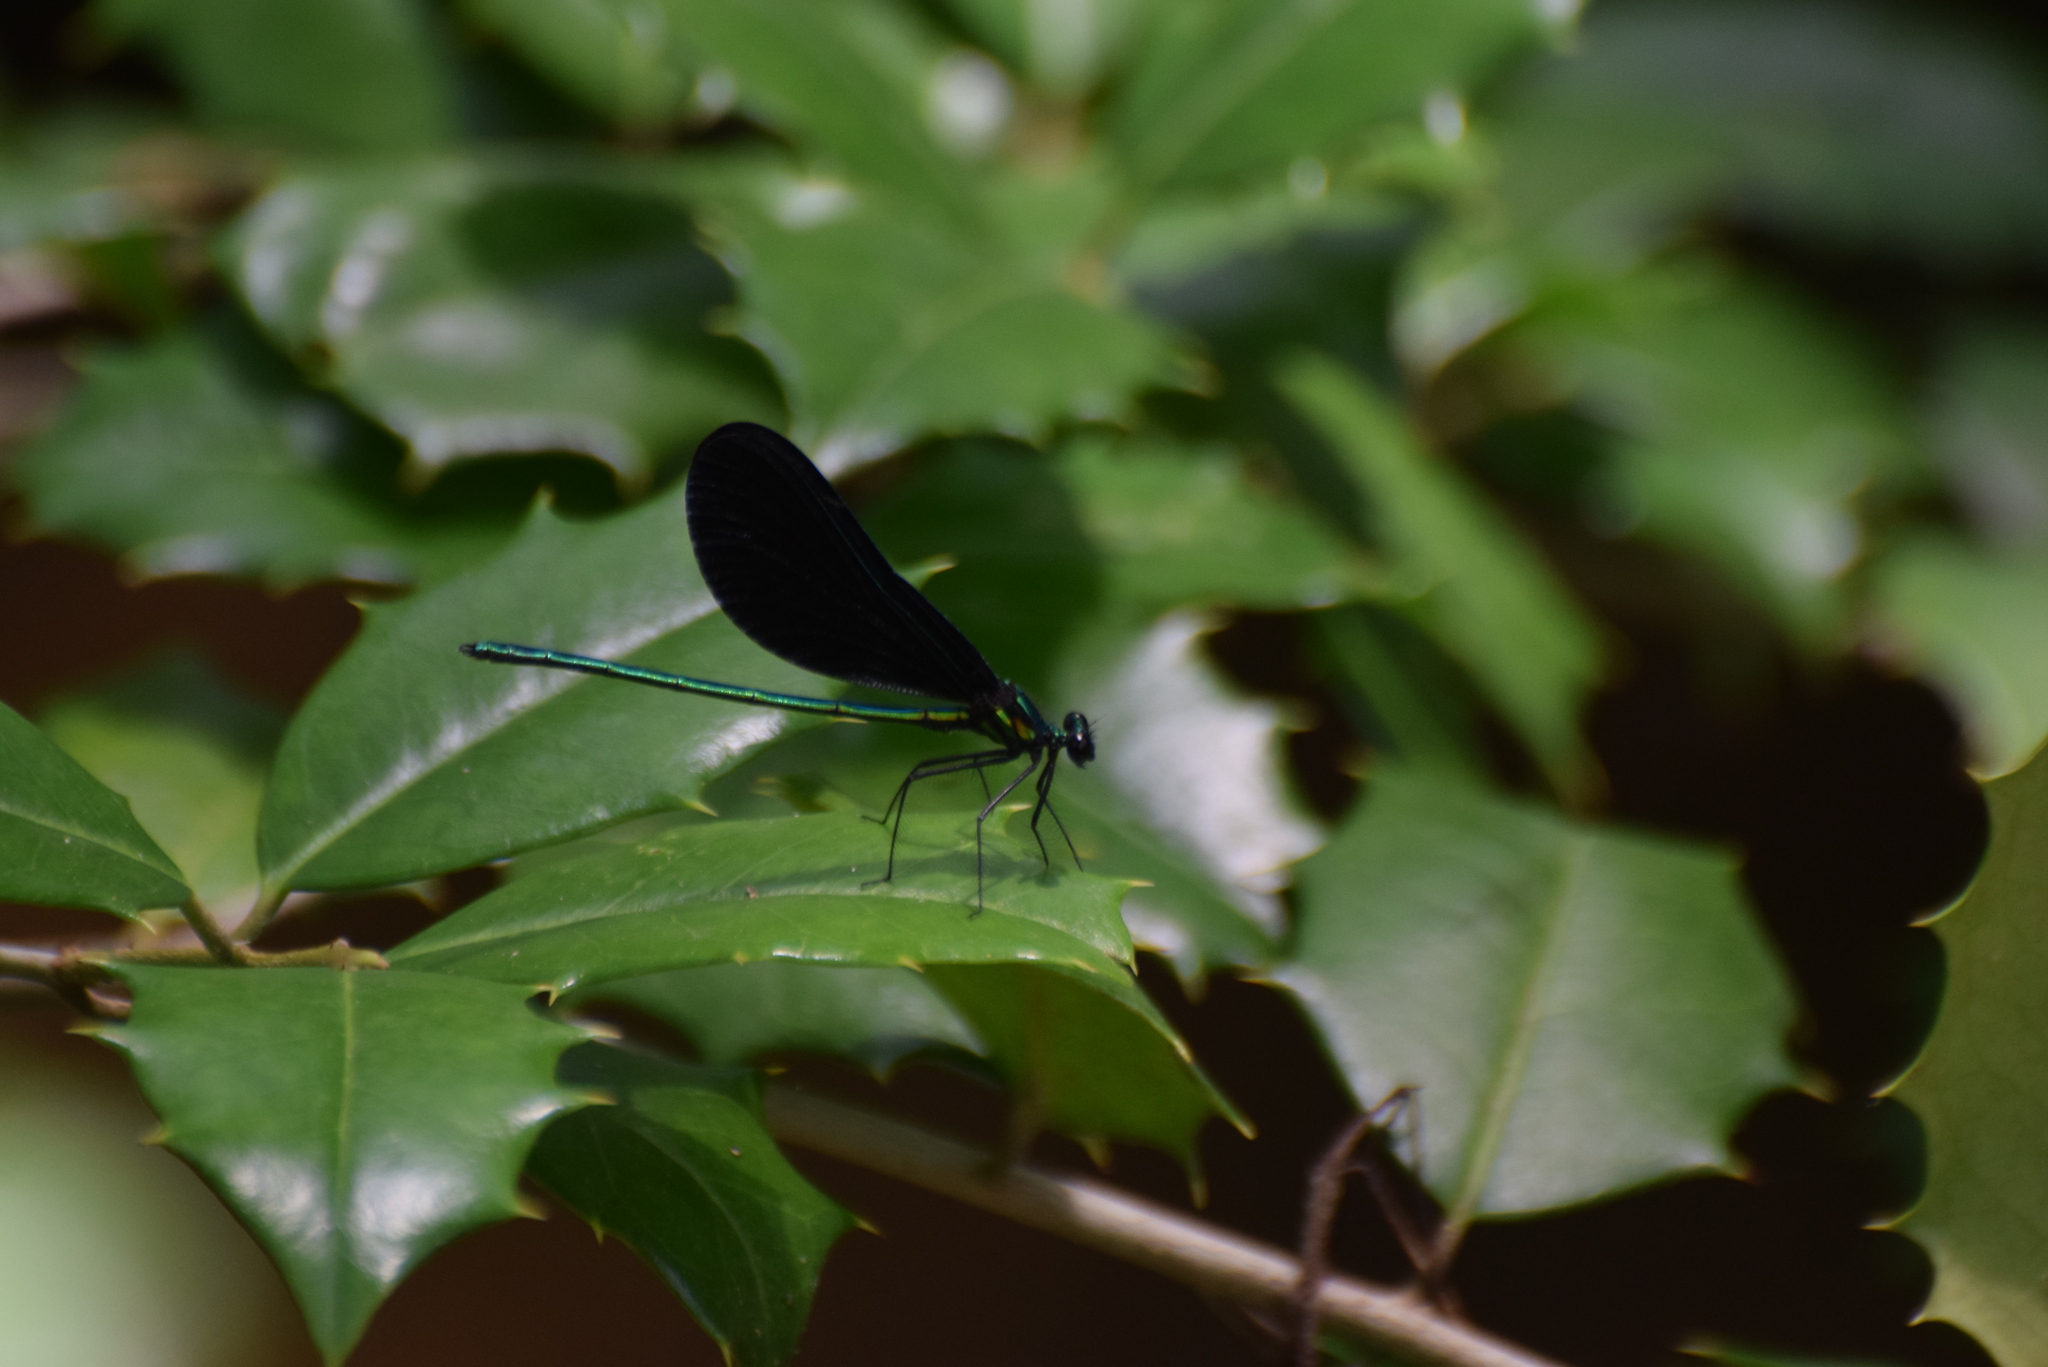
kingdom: Animalia
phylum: Arthropoda
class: Insecta
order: Odonata
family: Calopterygidae
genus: Calopteryx
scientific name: Calopteryx maculata
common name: Ebony jewelwing
